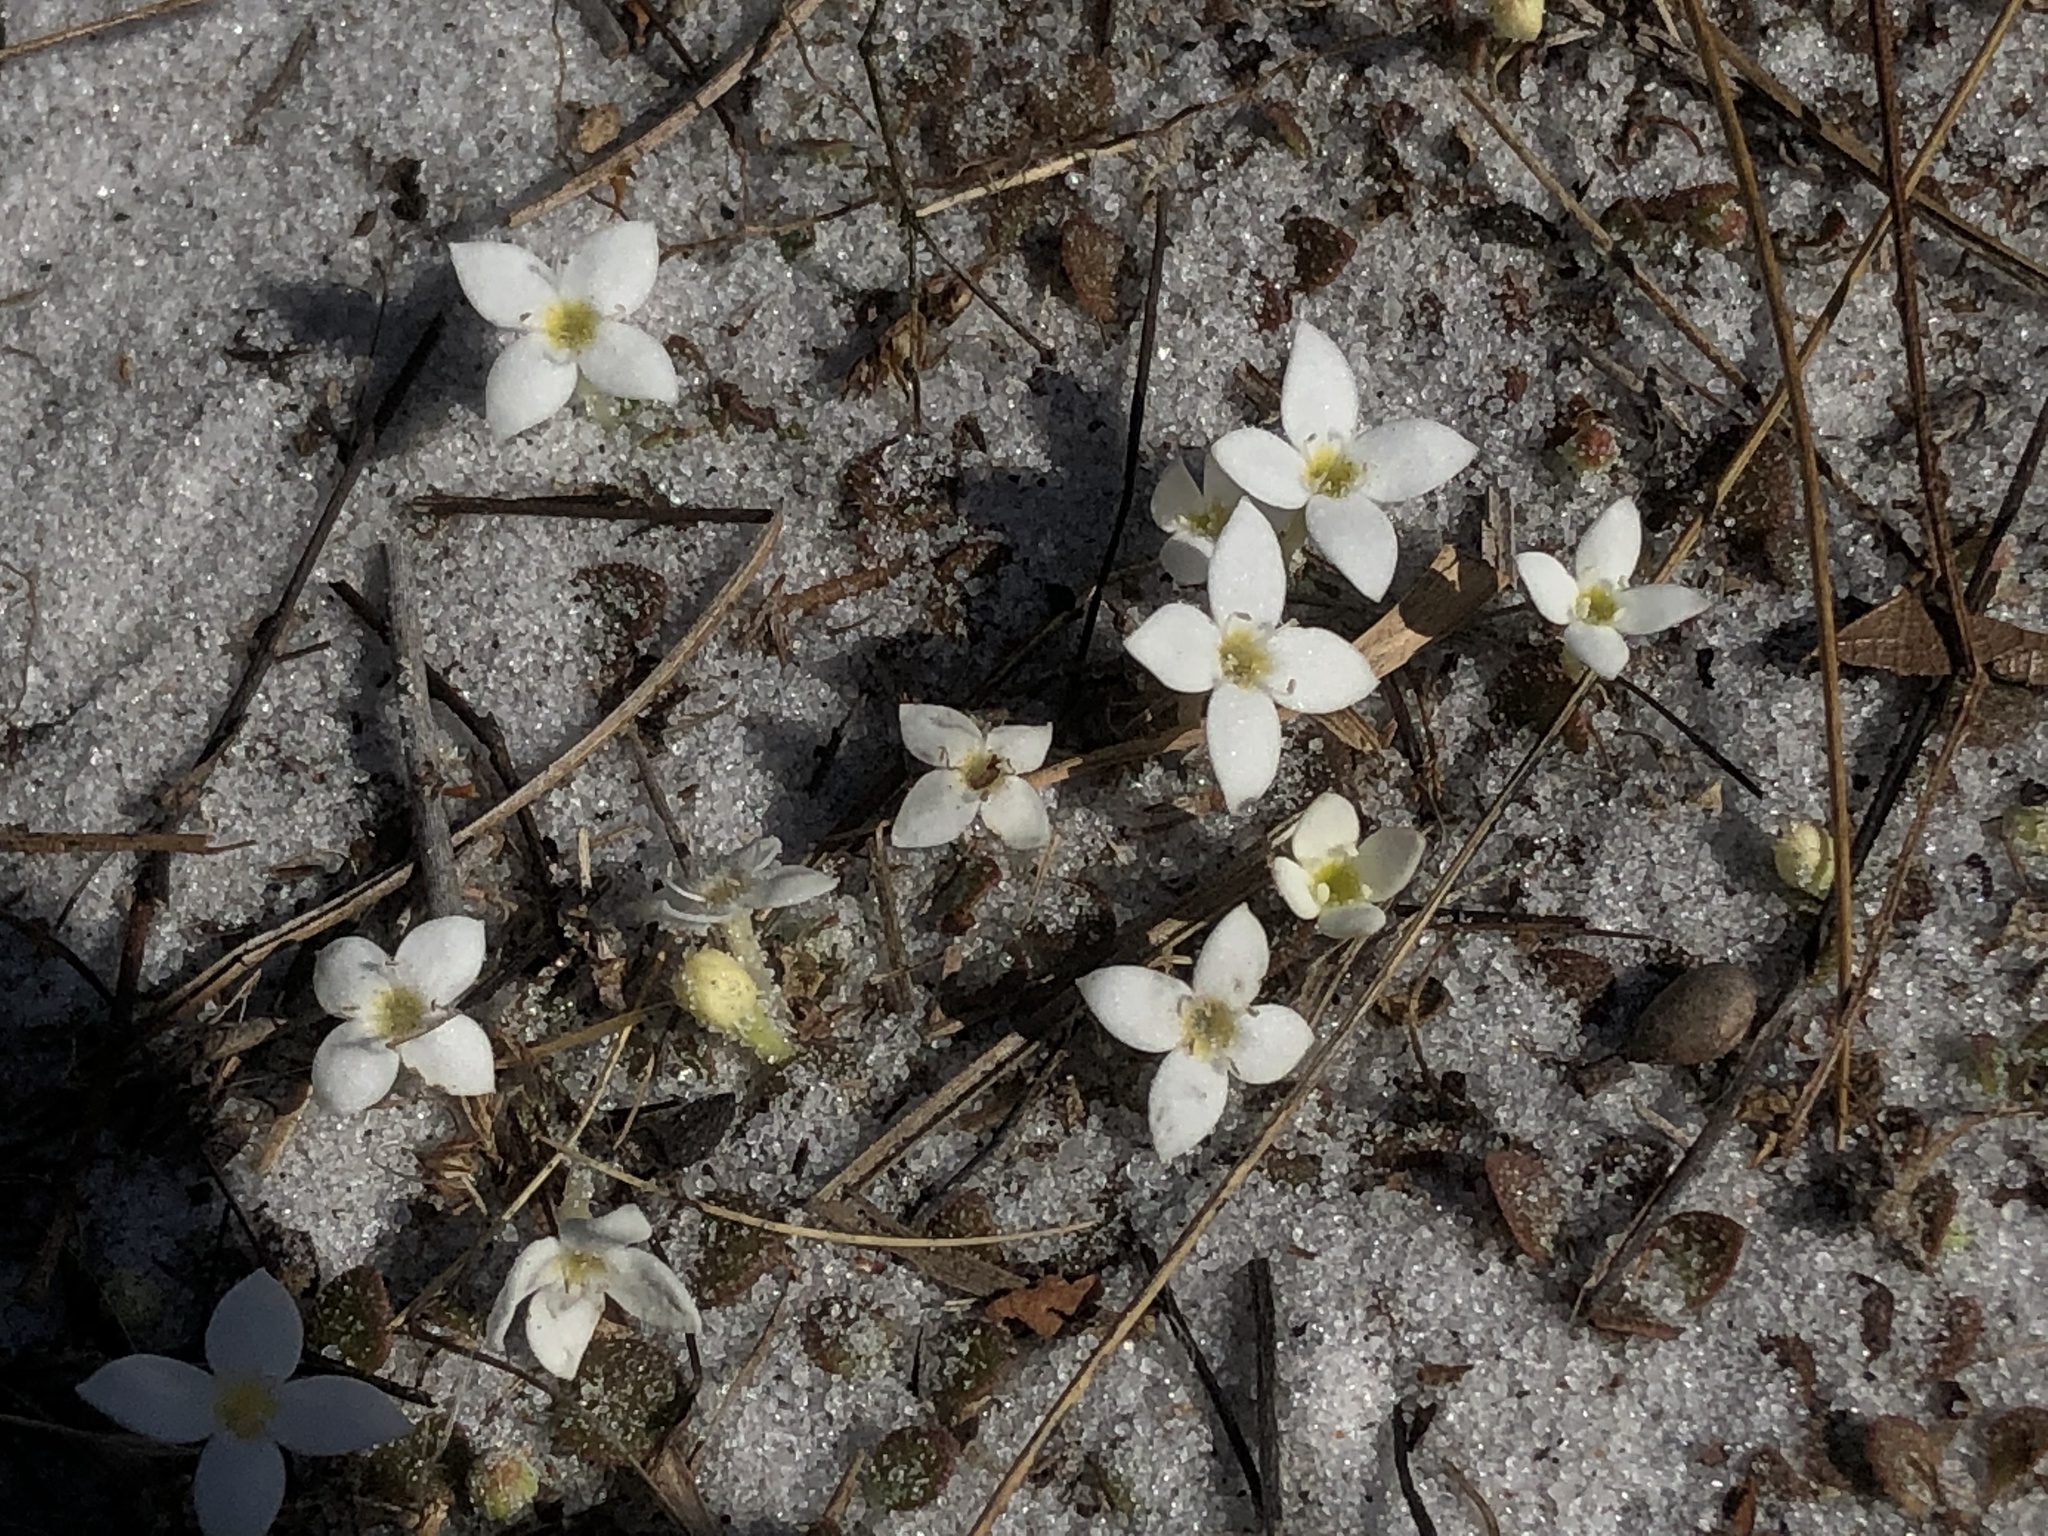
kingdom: Plantae
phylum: Tracheophyta
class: Magnoliopsida
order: Gentianales
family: Rubiaceae
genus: Houstonia
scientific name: Houstonia procumbens
